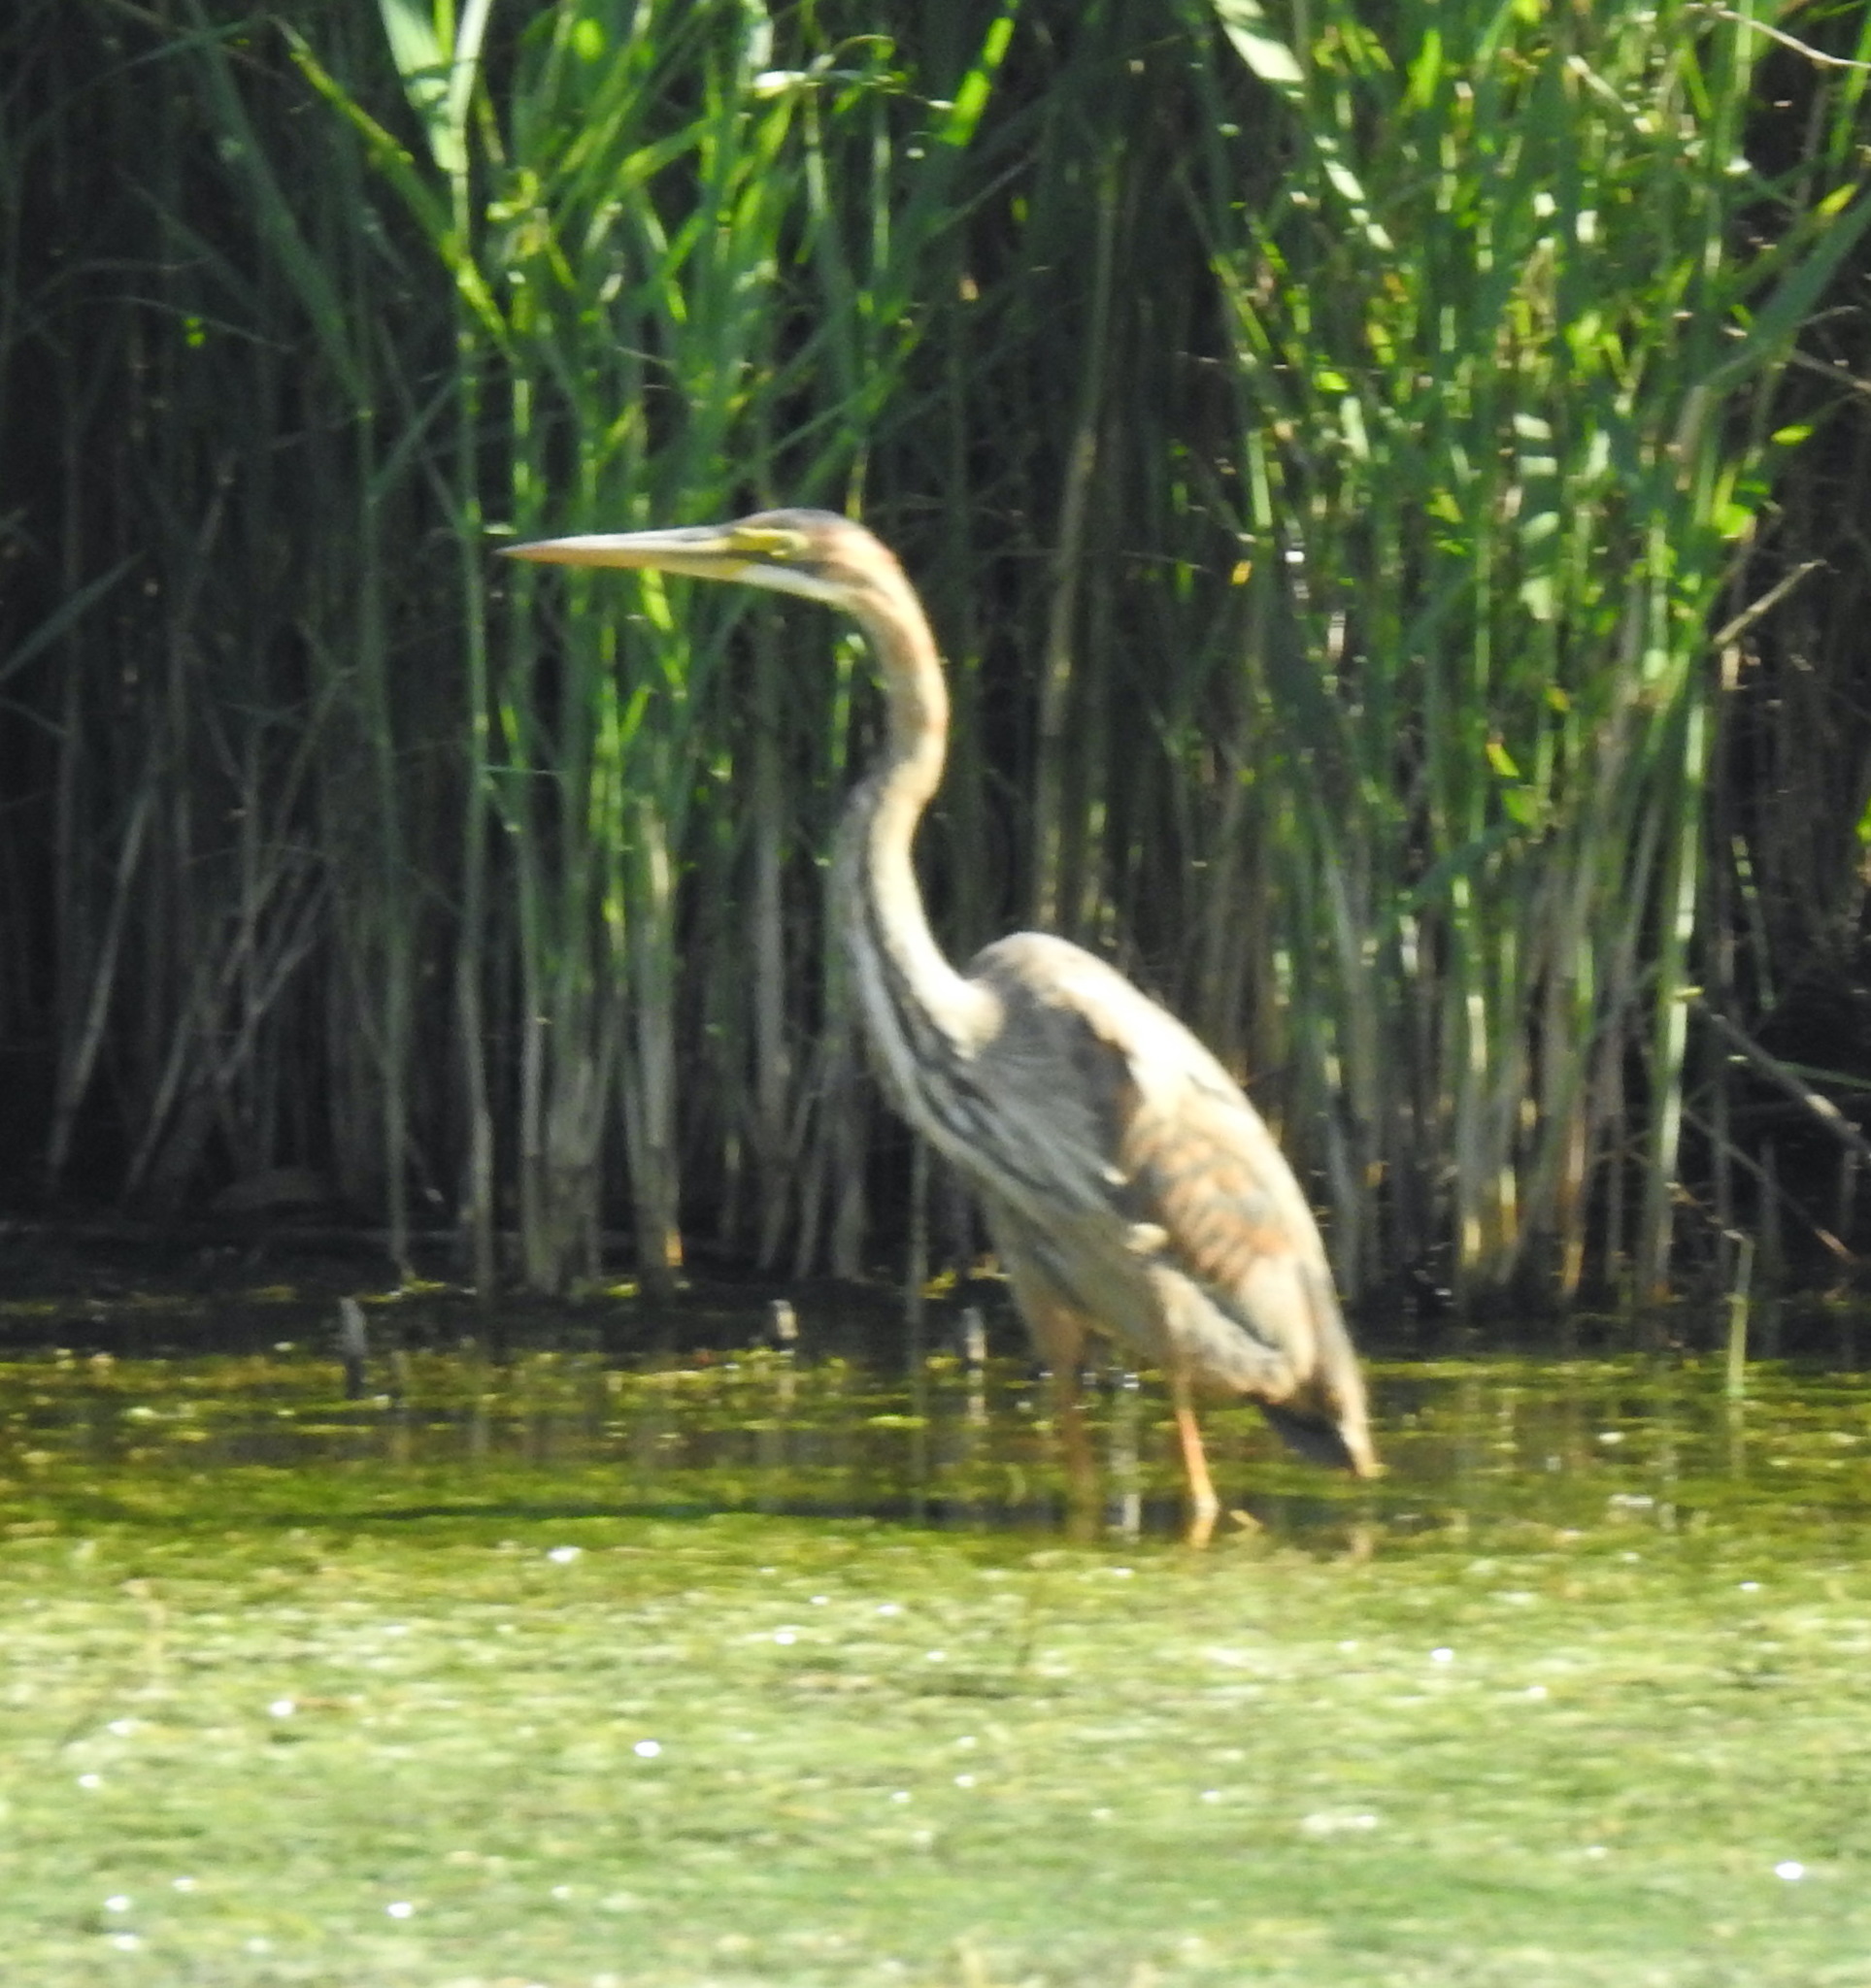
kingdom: Animalia
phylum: Chordata
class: Aves
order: Pelecaniformes
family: Ardeidae
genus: Ardea
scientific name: Ardea purpurea
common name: Purple heron
